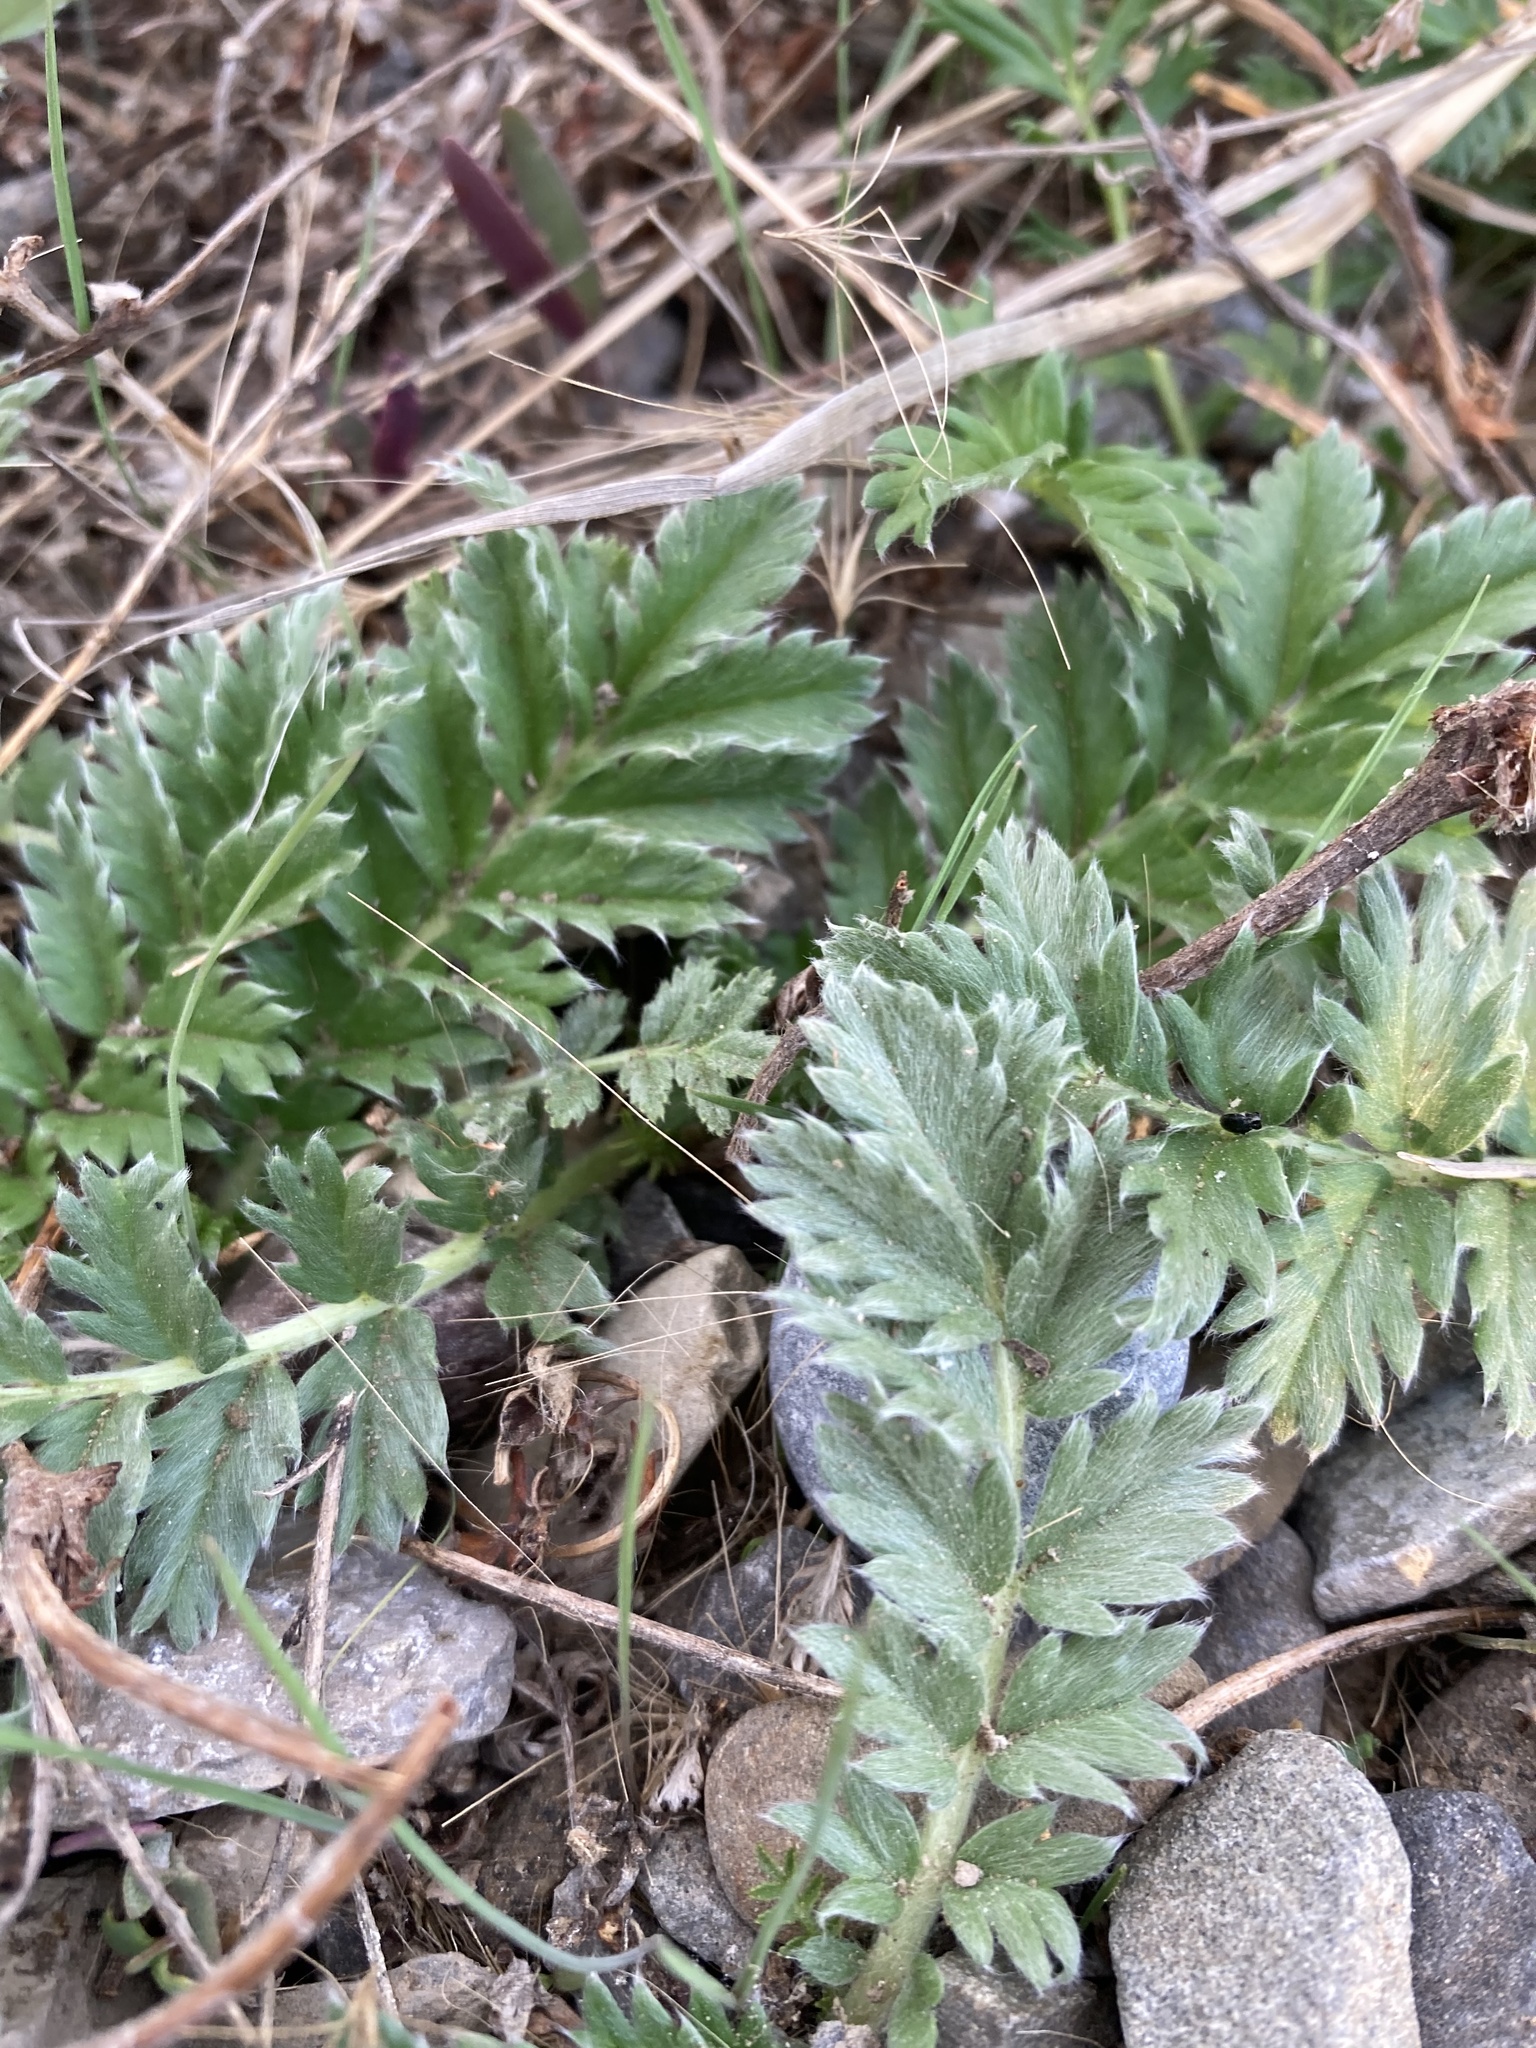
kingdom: Plantae
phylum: Tracheophyta
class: Magnoliopsida
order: Rosales
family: Rosaceae
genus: Argentina
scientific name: Argentina anserina
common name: Common silverweed
